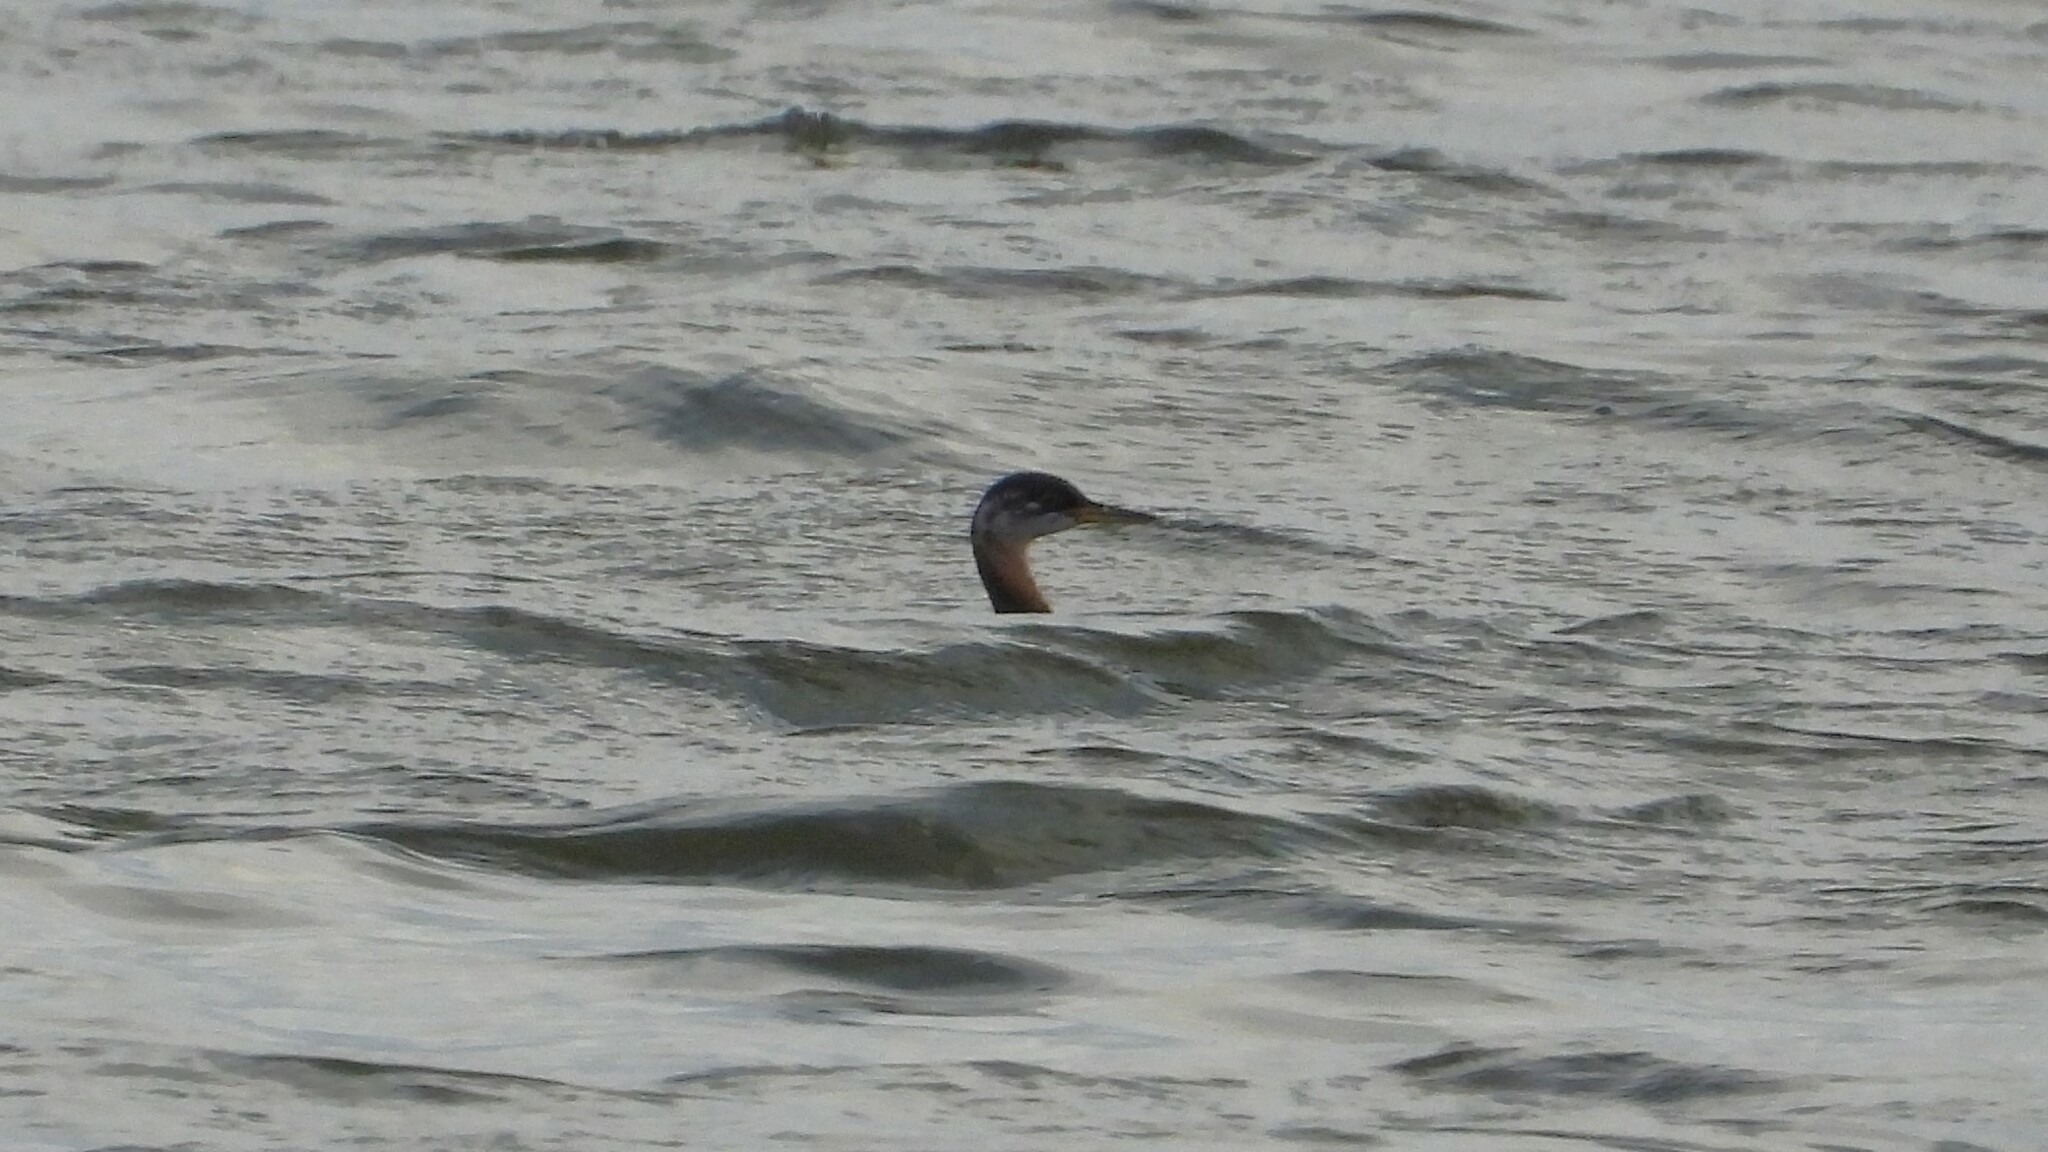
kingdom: Animalia
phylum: Chordata
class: Aves
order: Podicipediformes
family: Podicipedidae
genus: Podiceps
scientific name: Podiceps grisegena
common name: Red-necked grebe
